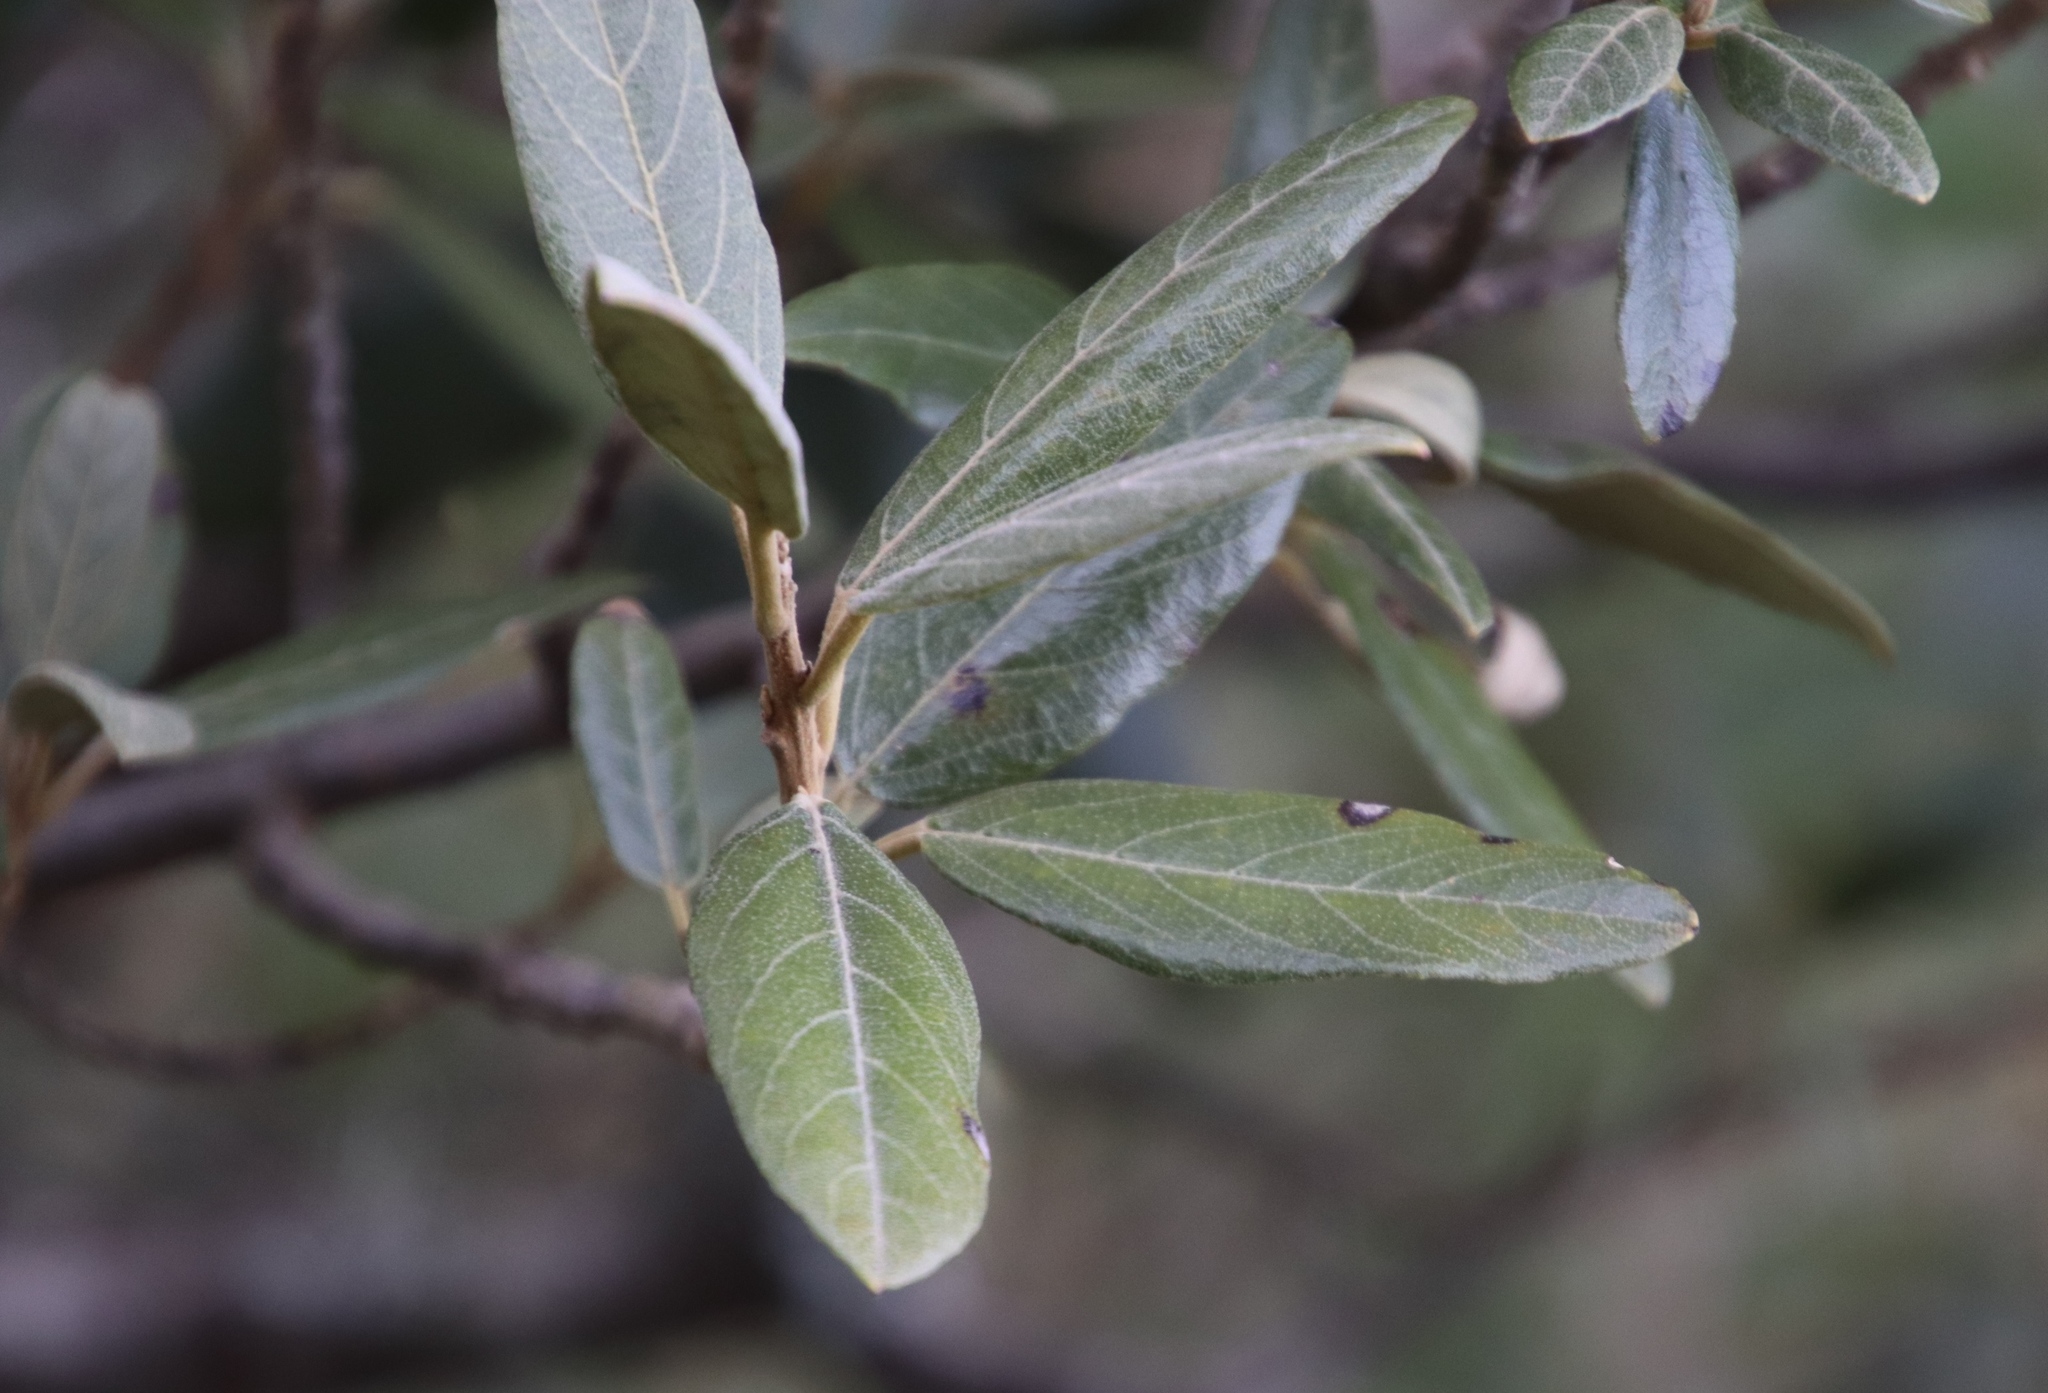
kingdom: Plantae
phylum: Tracheophyta
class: Magnoliopsida
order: Malpighiales
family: Achariaceae
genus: Kiggelaria
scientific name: Kiggelaria africana
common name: Wild peach
